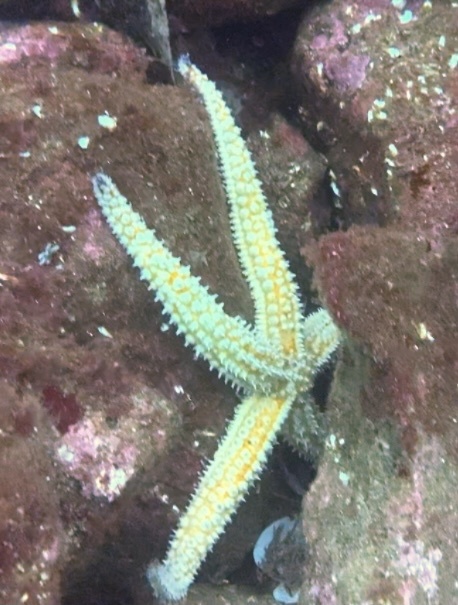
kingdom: Animalia
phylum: Echinodermata
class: Asteroidea
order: Forcipulatida
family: Asteriidae
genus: Marthasterias
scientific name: Marthasterias glacialis
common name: Spiny starfish
